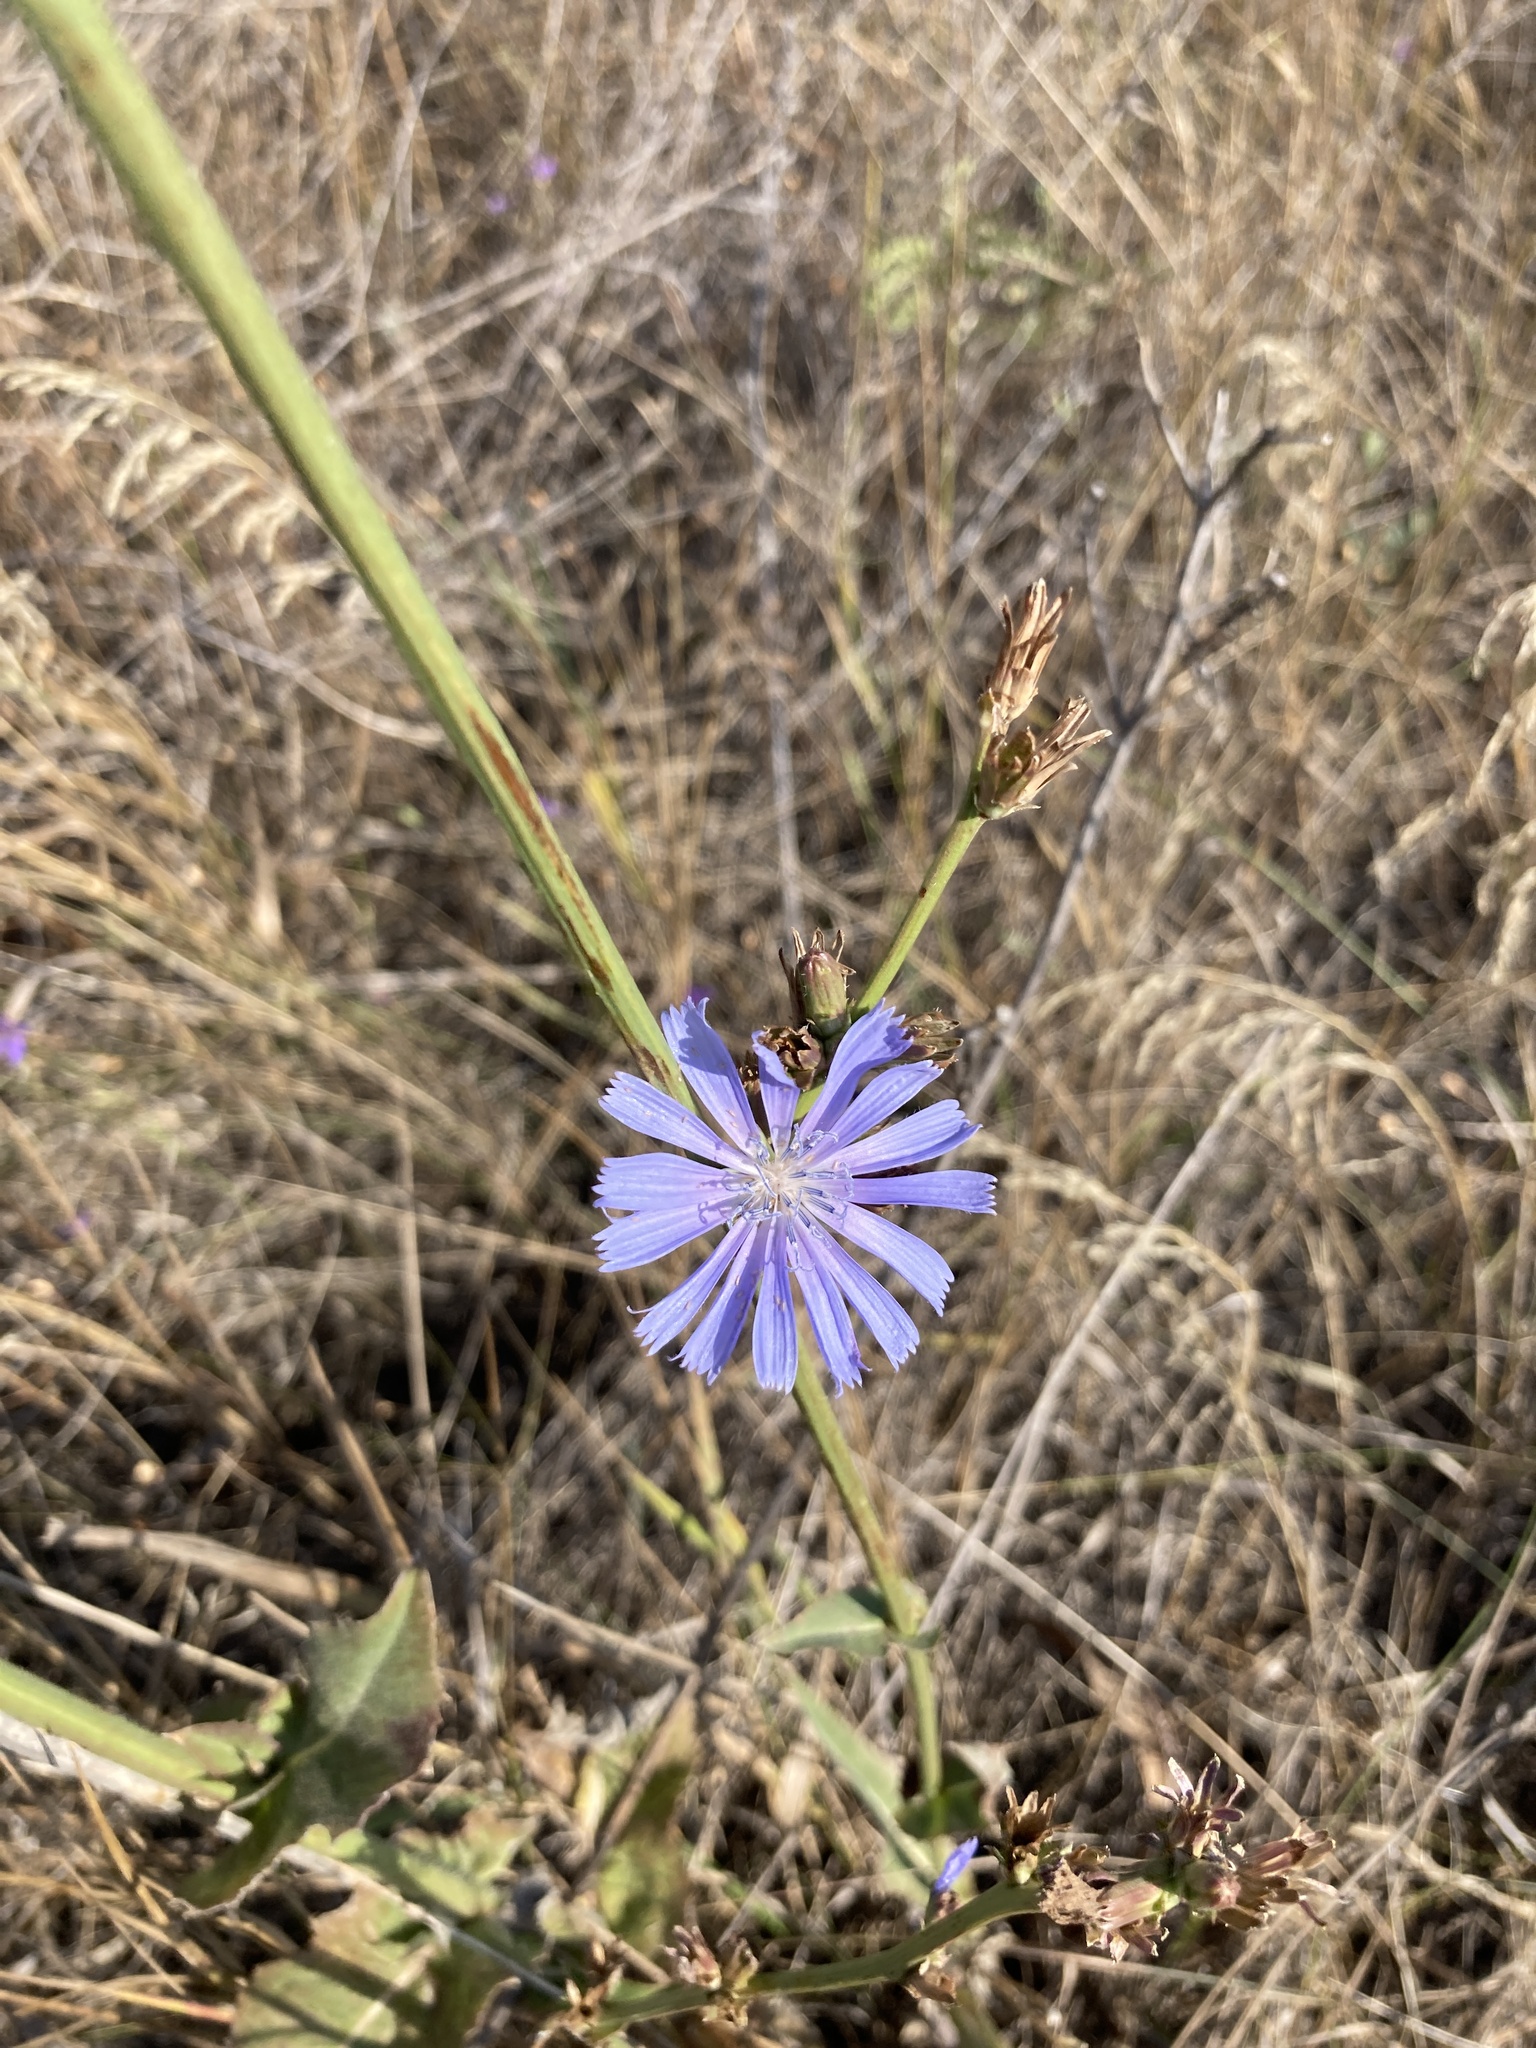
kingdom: Plantae
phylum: Tracheophyta
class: Magnoliopsida
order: Asterales
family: Asteraceae
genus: Cichorium
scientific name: Cichorium intybus
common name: Chicory
